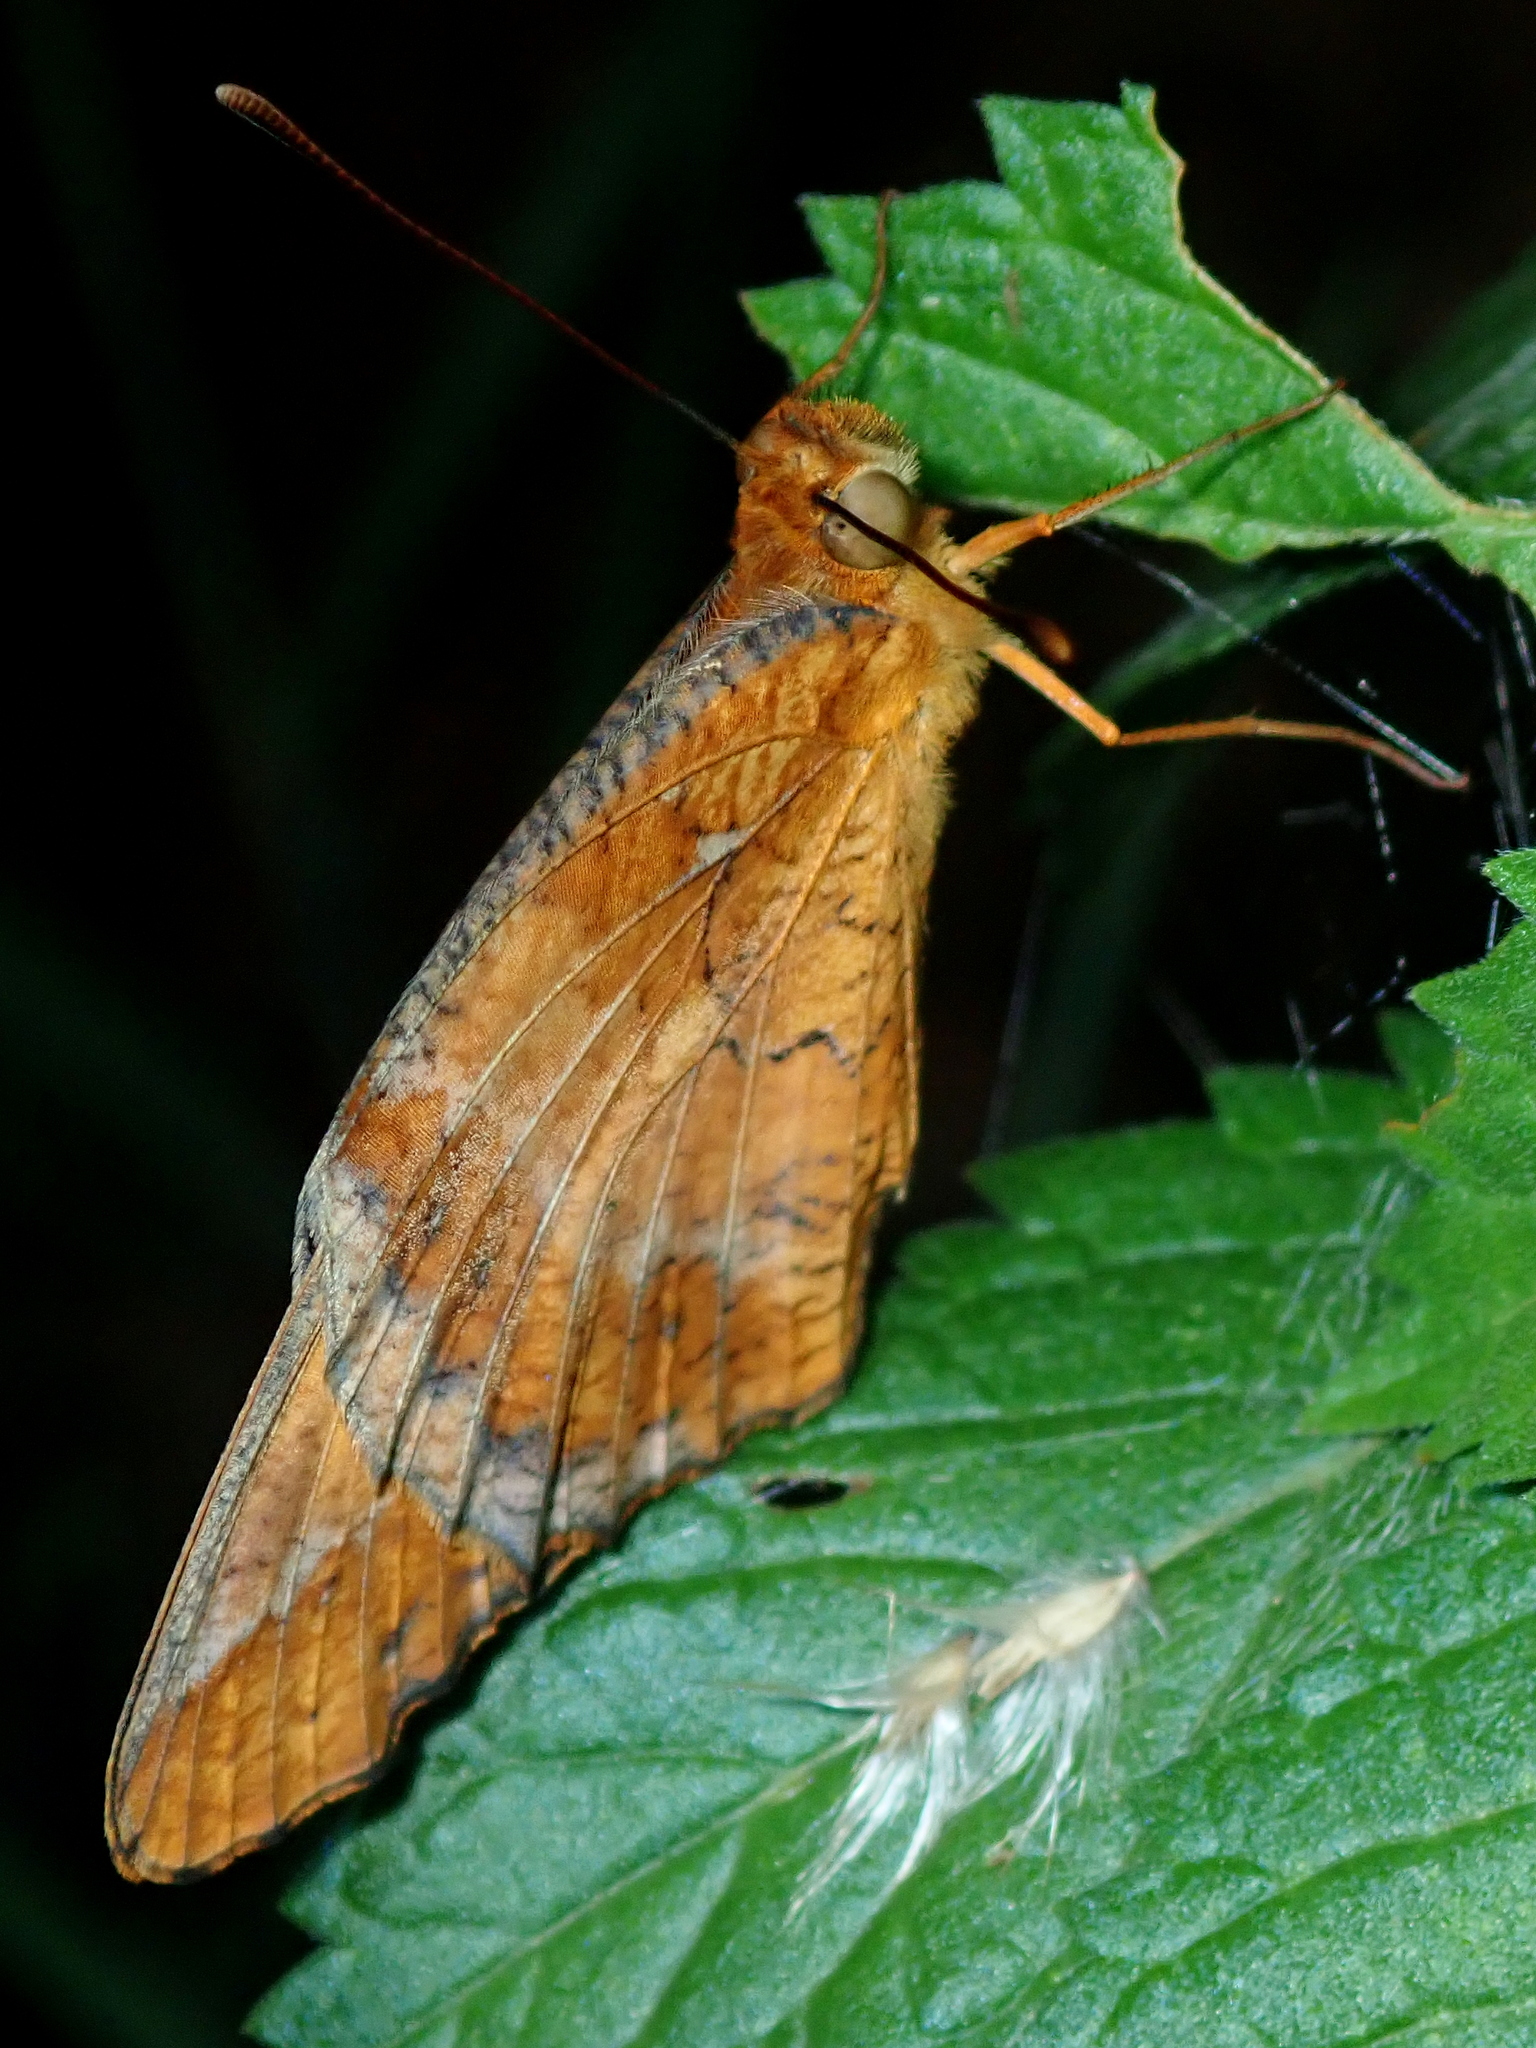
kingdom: Animalia
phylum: Arthropoda
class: Insecta
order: Lepidoptera
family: Nymphalidae
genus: Euptoieta
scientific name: Euptoieta hegesia
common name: Mexican fritillary
